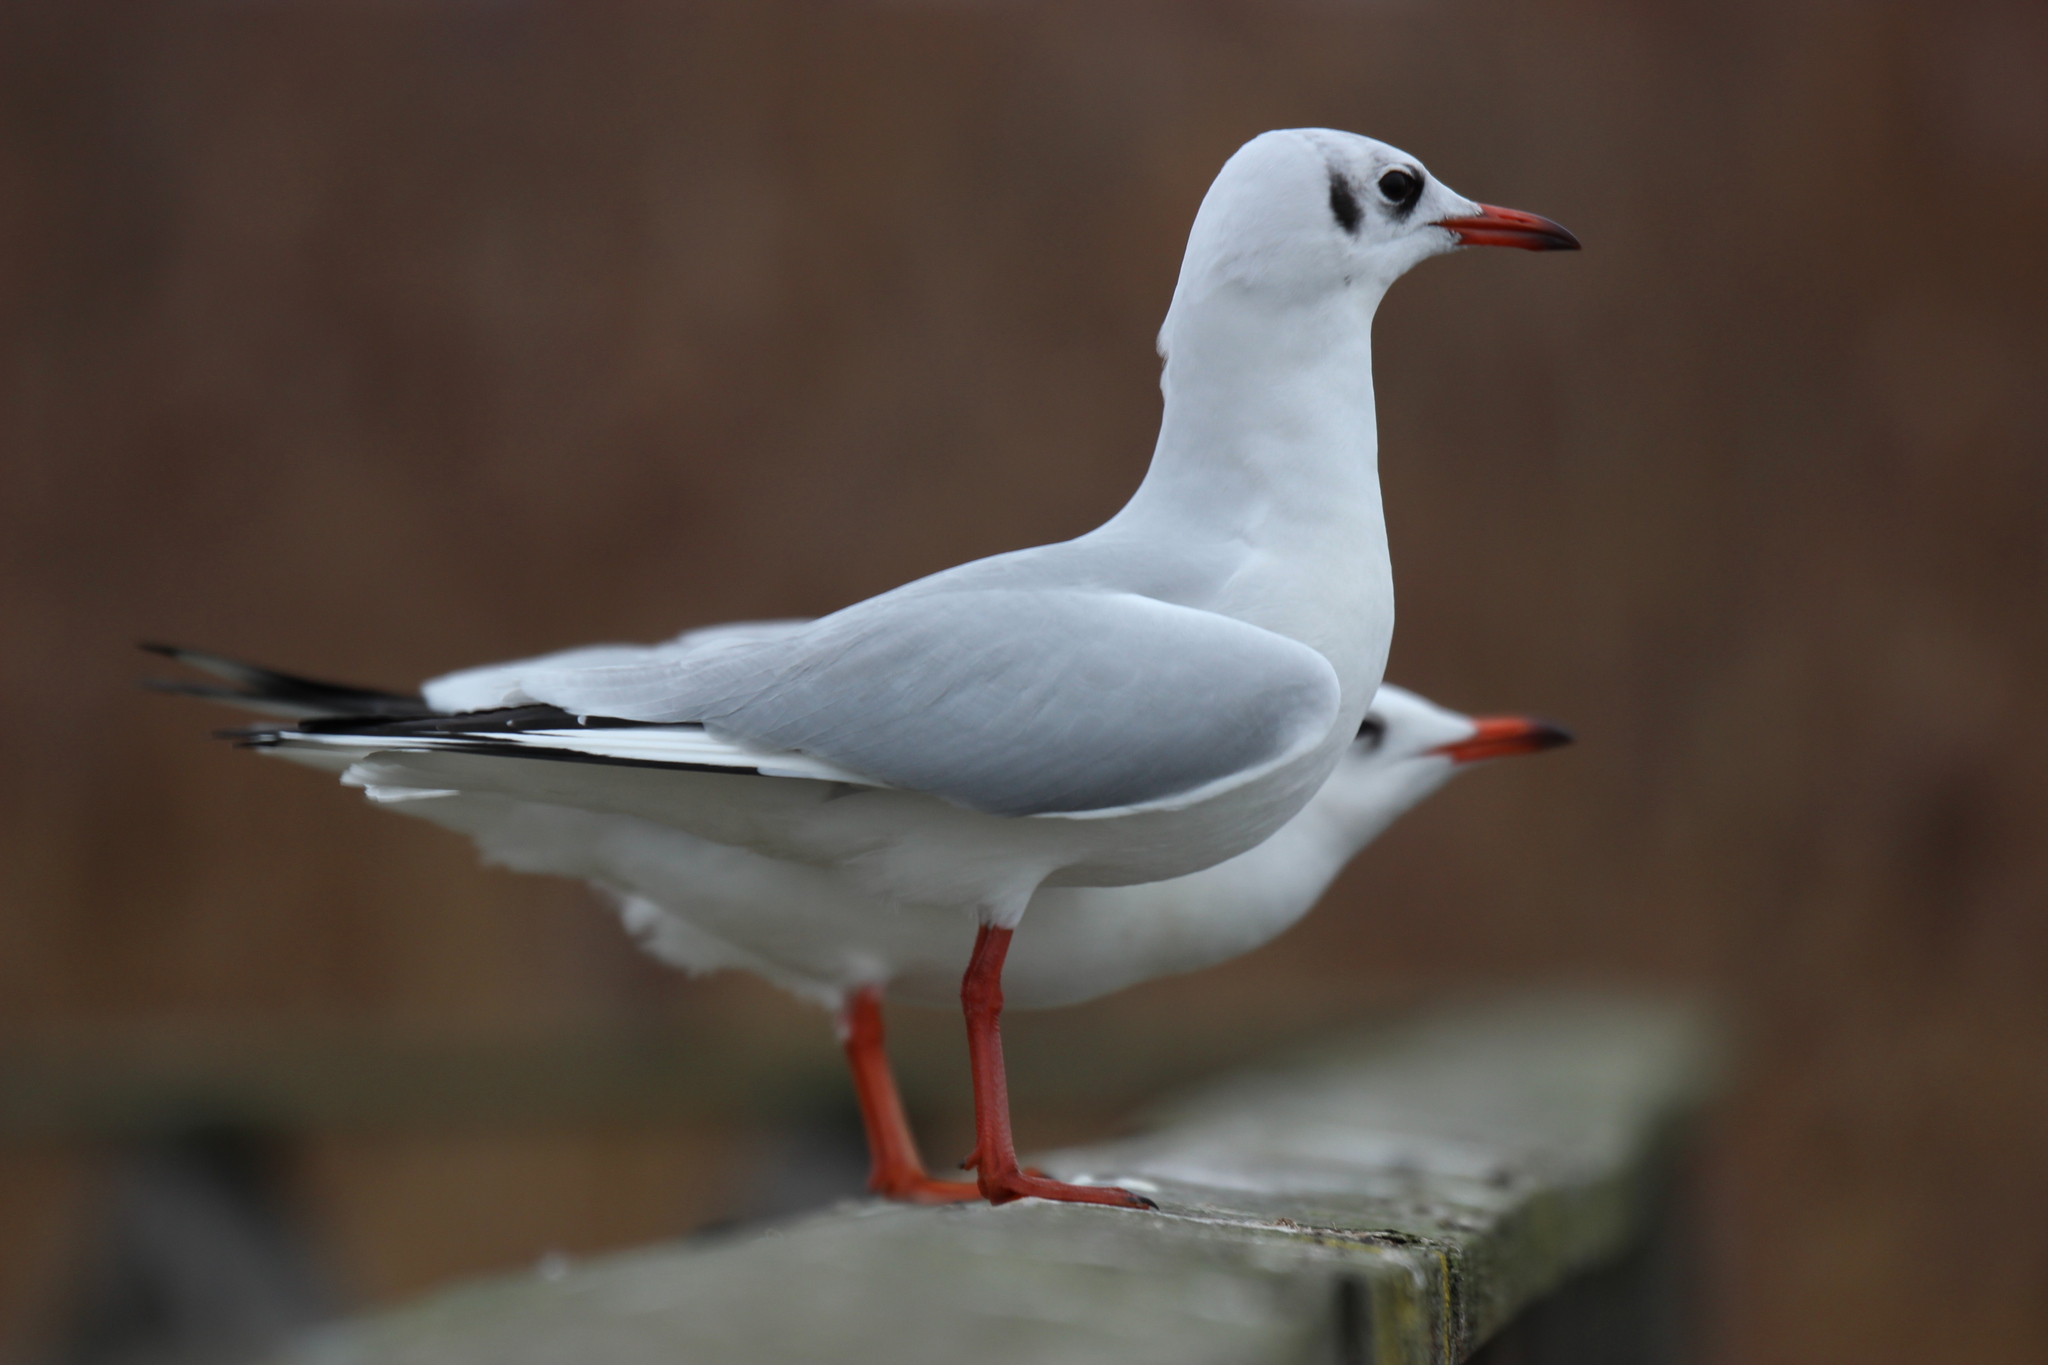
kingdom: Animalia
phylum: Chordata
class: Aves
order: Charadriiformes
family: Laridae
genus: Chroicocephalus
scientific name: Chroicocephalus ridibundus
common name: Black-headed gull
